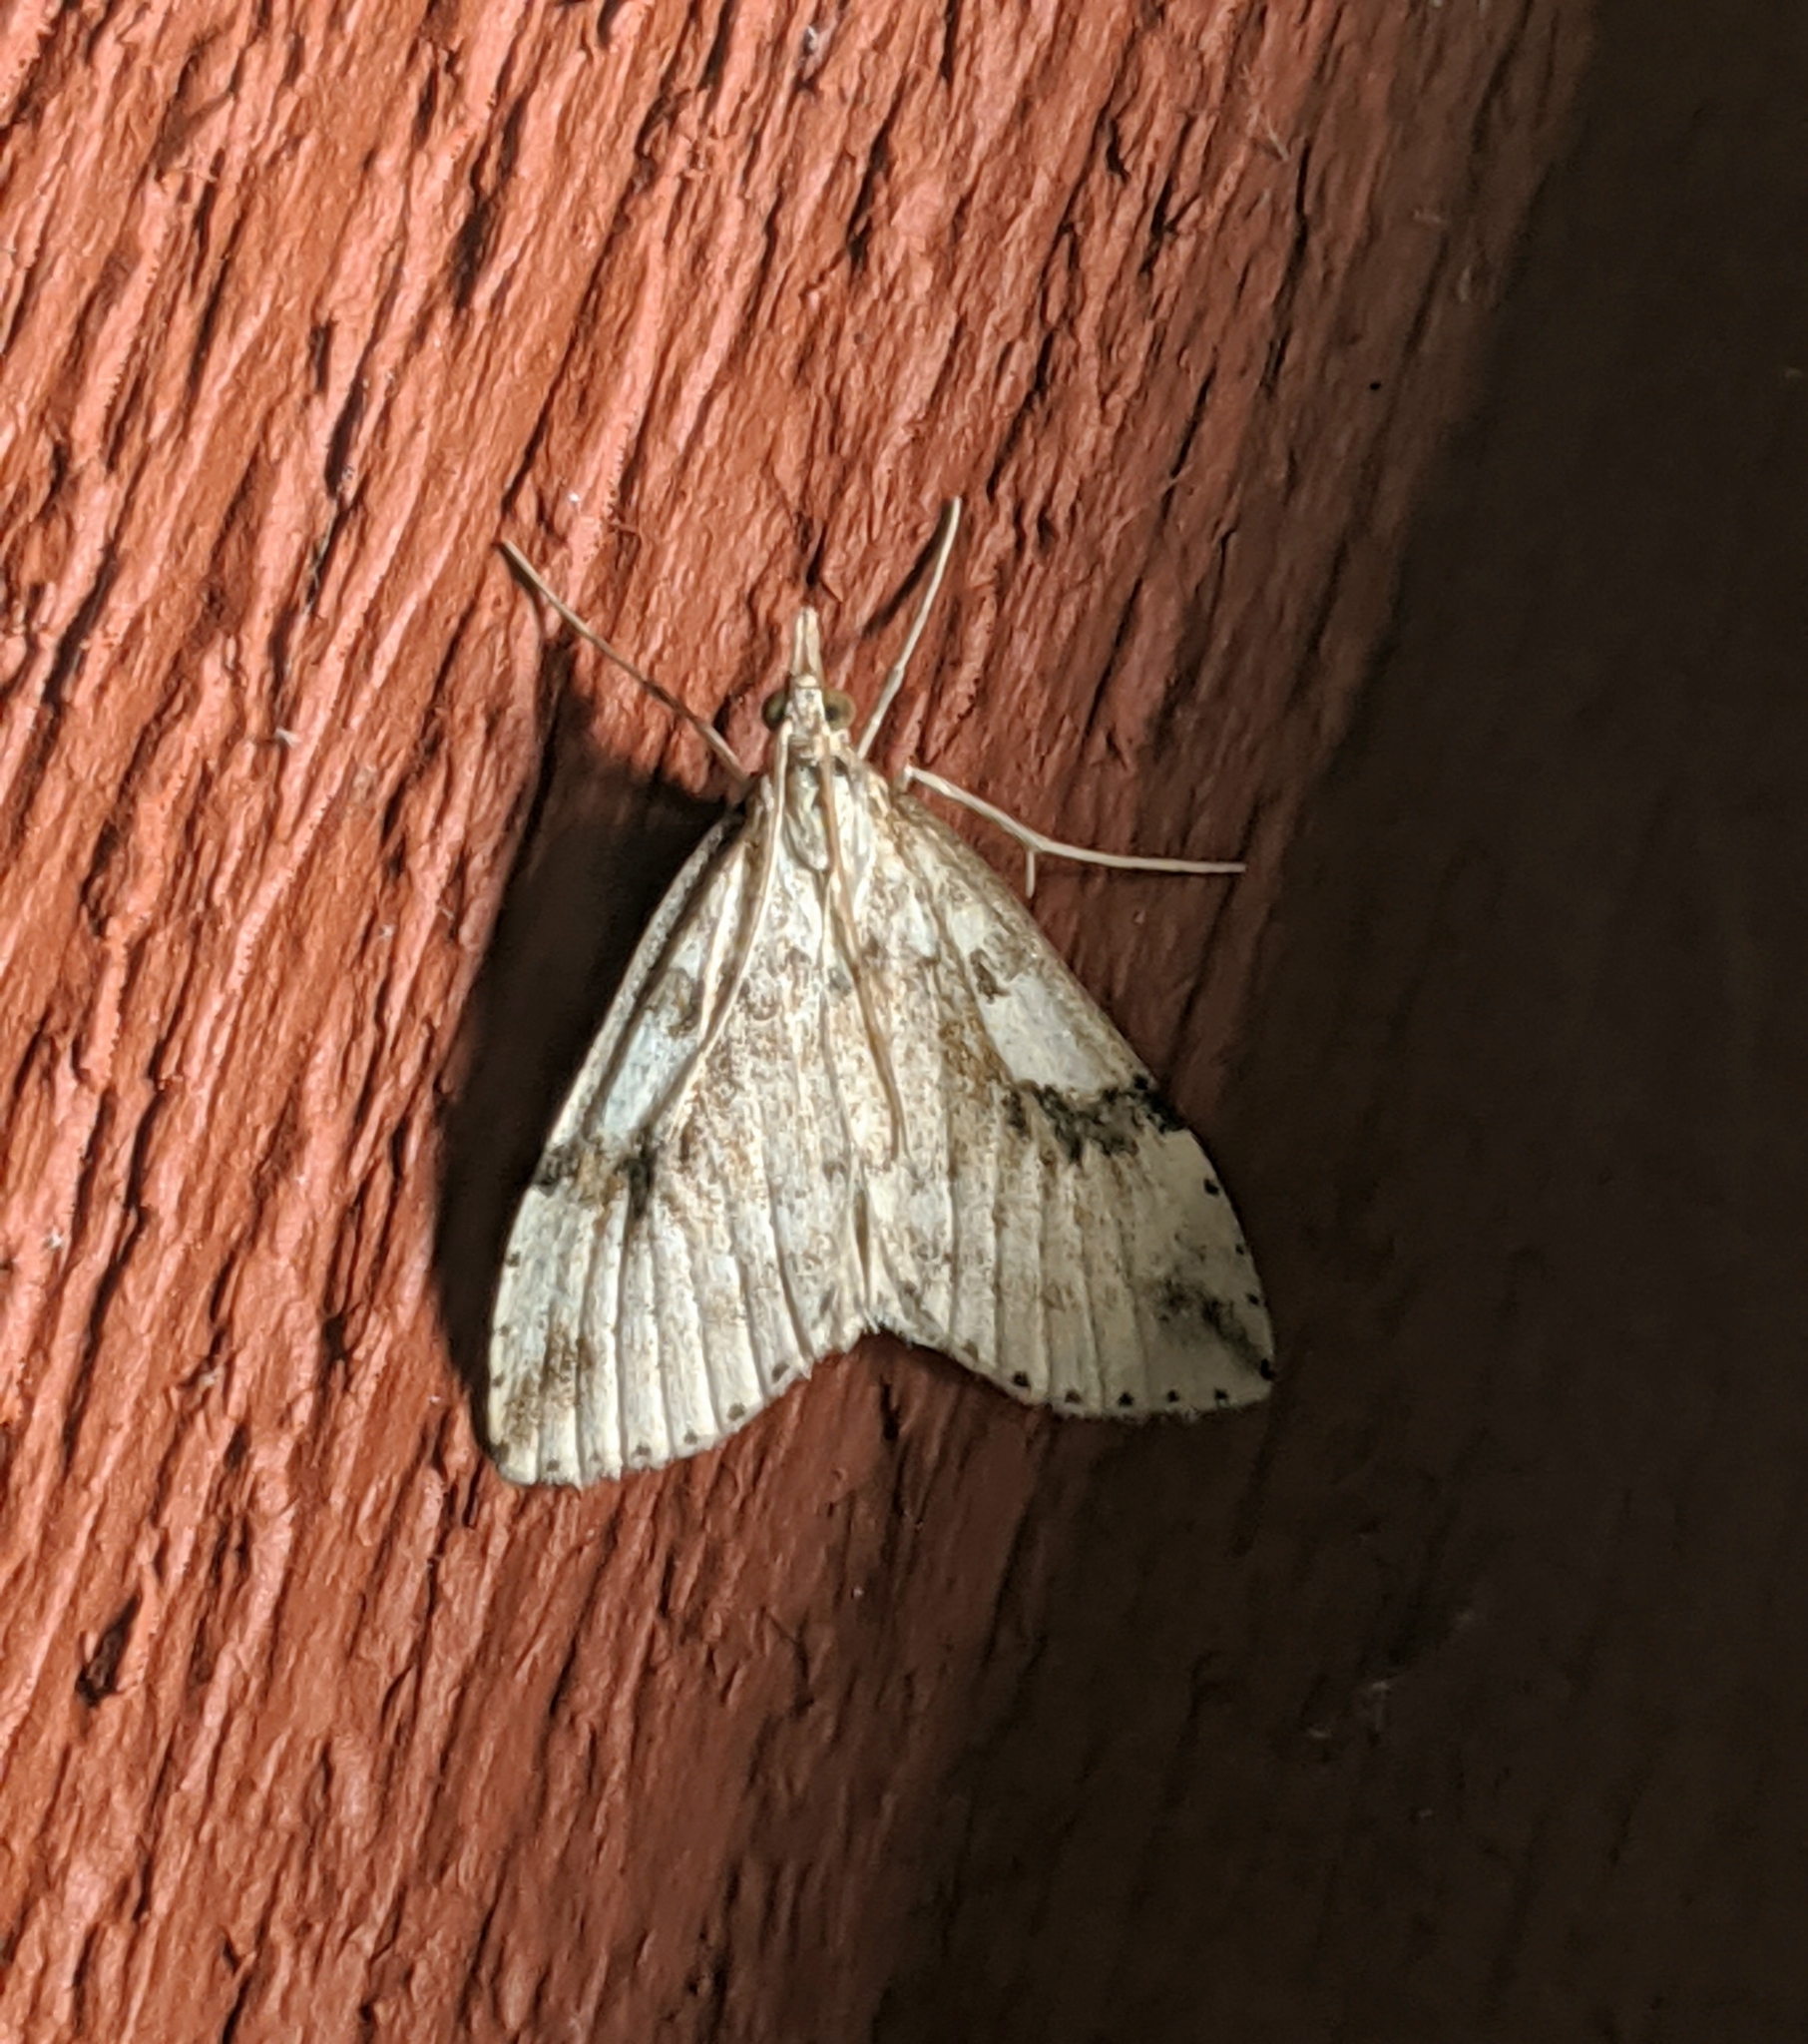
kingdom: Animalia
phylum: Arthropoda
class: Insecta
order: Lepidoptera
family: Crambidae
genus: Udea
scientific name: Udea washingtonalis
